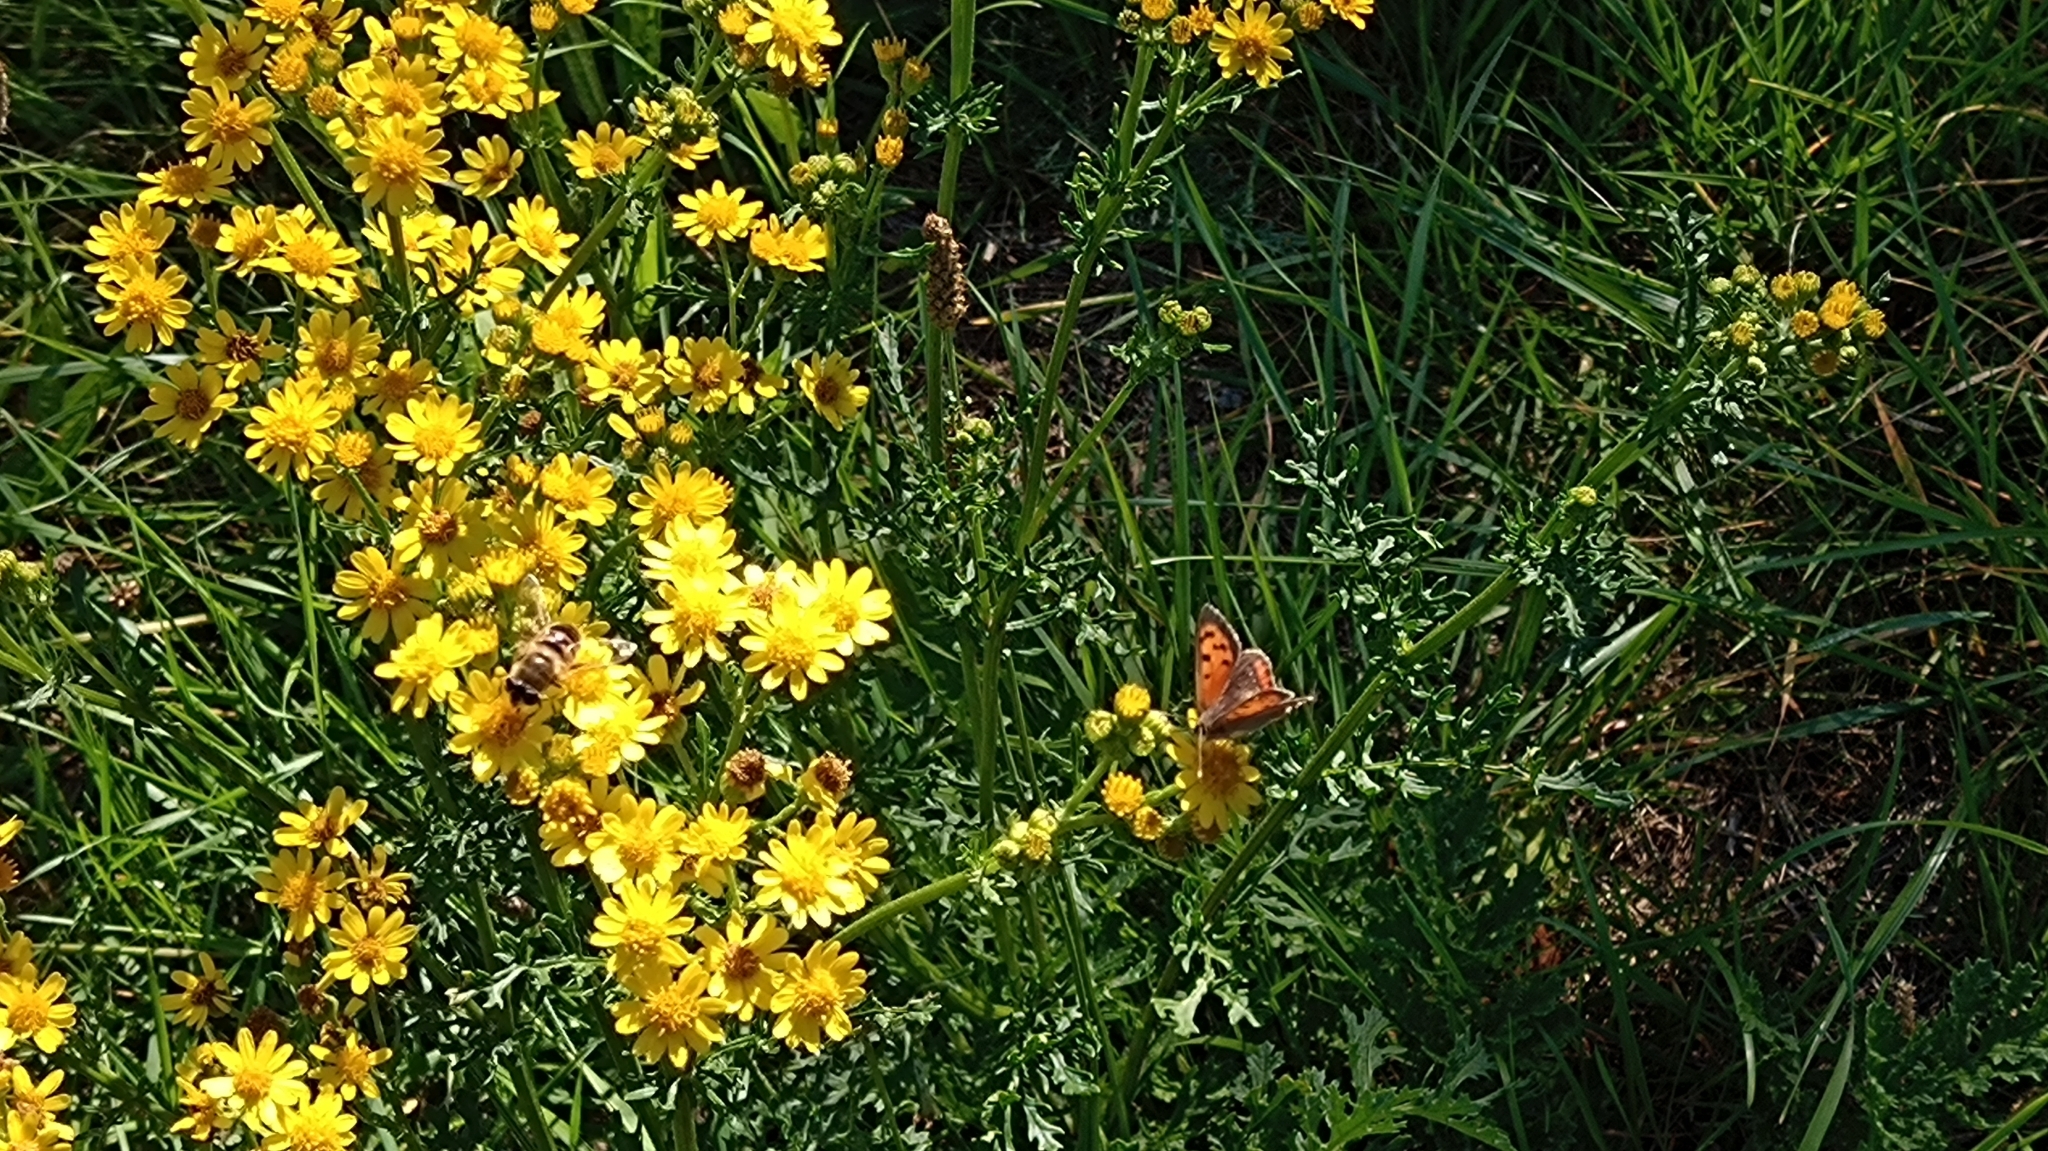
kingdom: Animalia
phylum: Arthropoda
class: Insecta
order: Lepidoptera
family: Lycaenidae
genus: Lycaena
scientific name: Lycaena phlaeas
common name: Small copper
